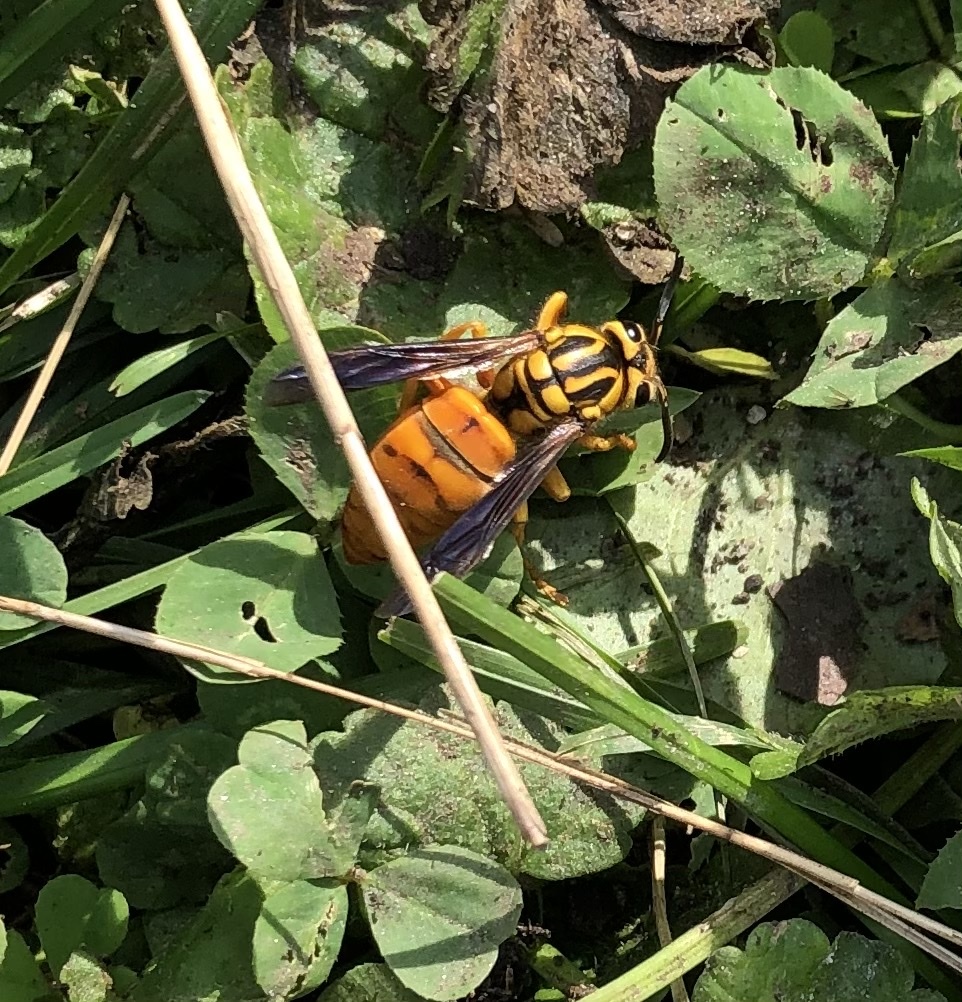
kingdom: Animalia
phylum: Arthropoda
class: Insecta
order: Hymenoptera
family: Vespidae
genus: Vespula
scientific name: Vespula squamosa
